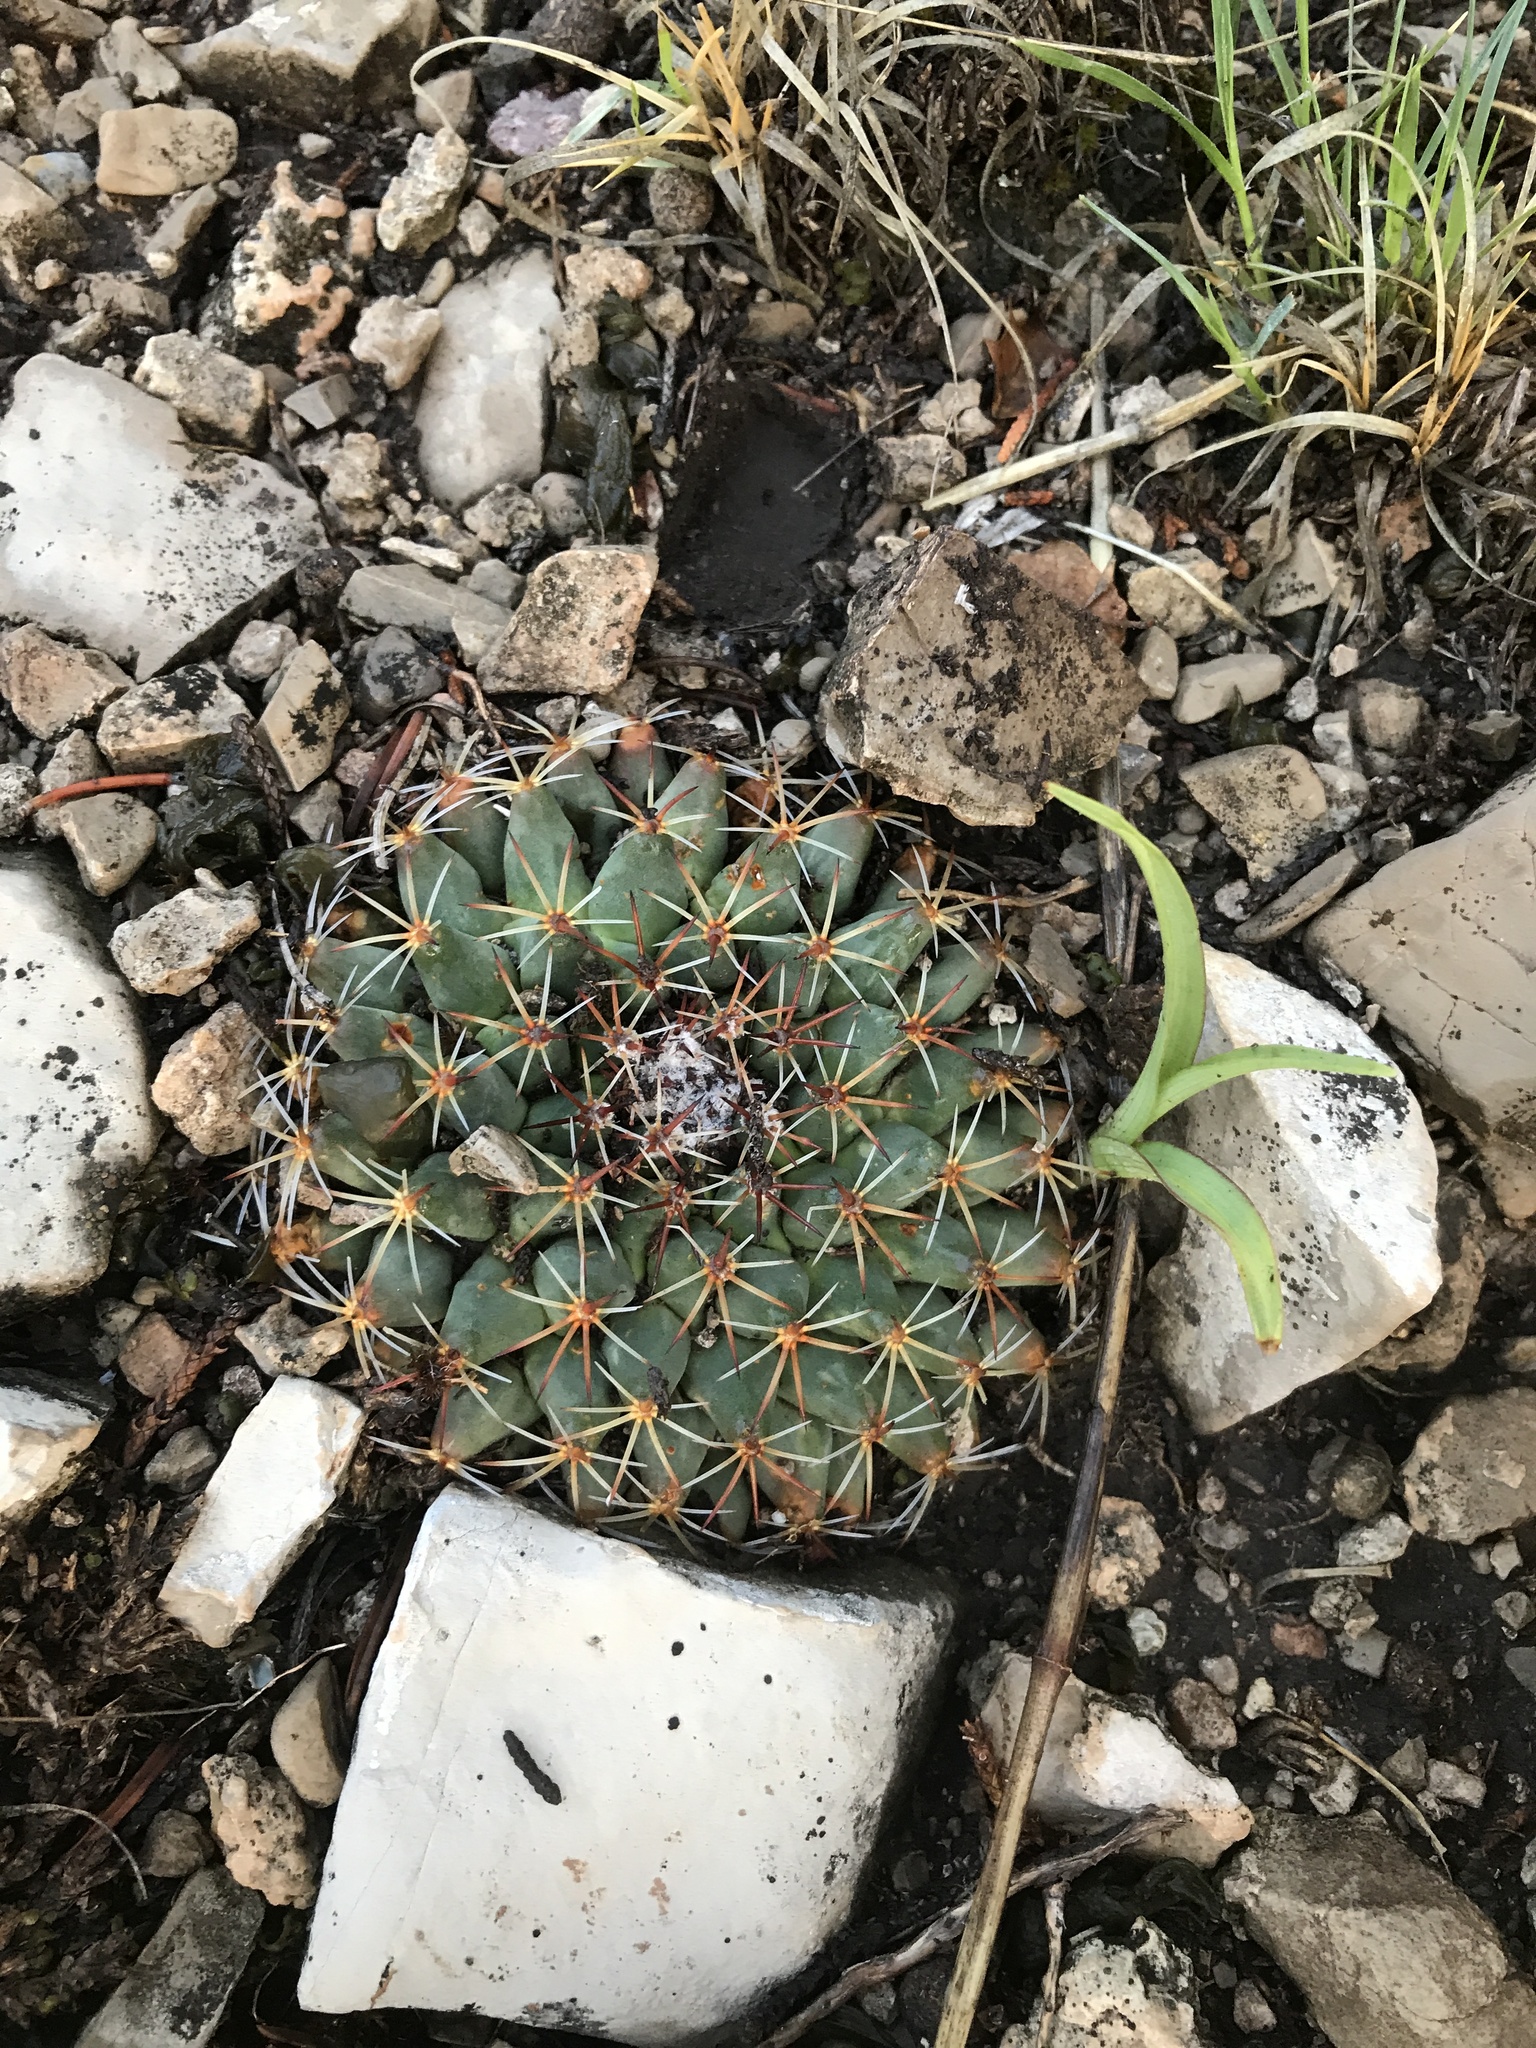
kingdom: Plantae
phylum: Tracheophyta
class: Magnoliopsida
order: Caryophyllales
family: Cactaceae
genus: Mammillaria
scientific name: Mammillaria heyderi
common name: Little nipple cactus
